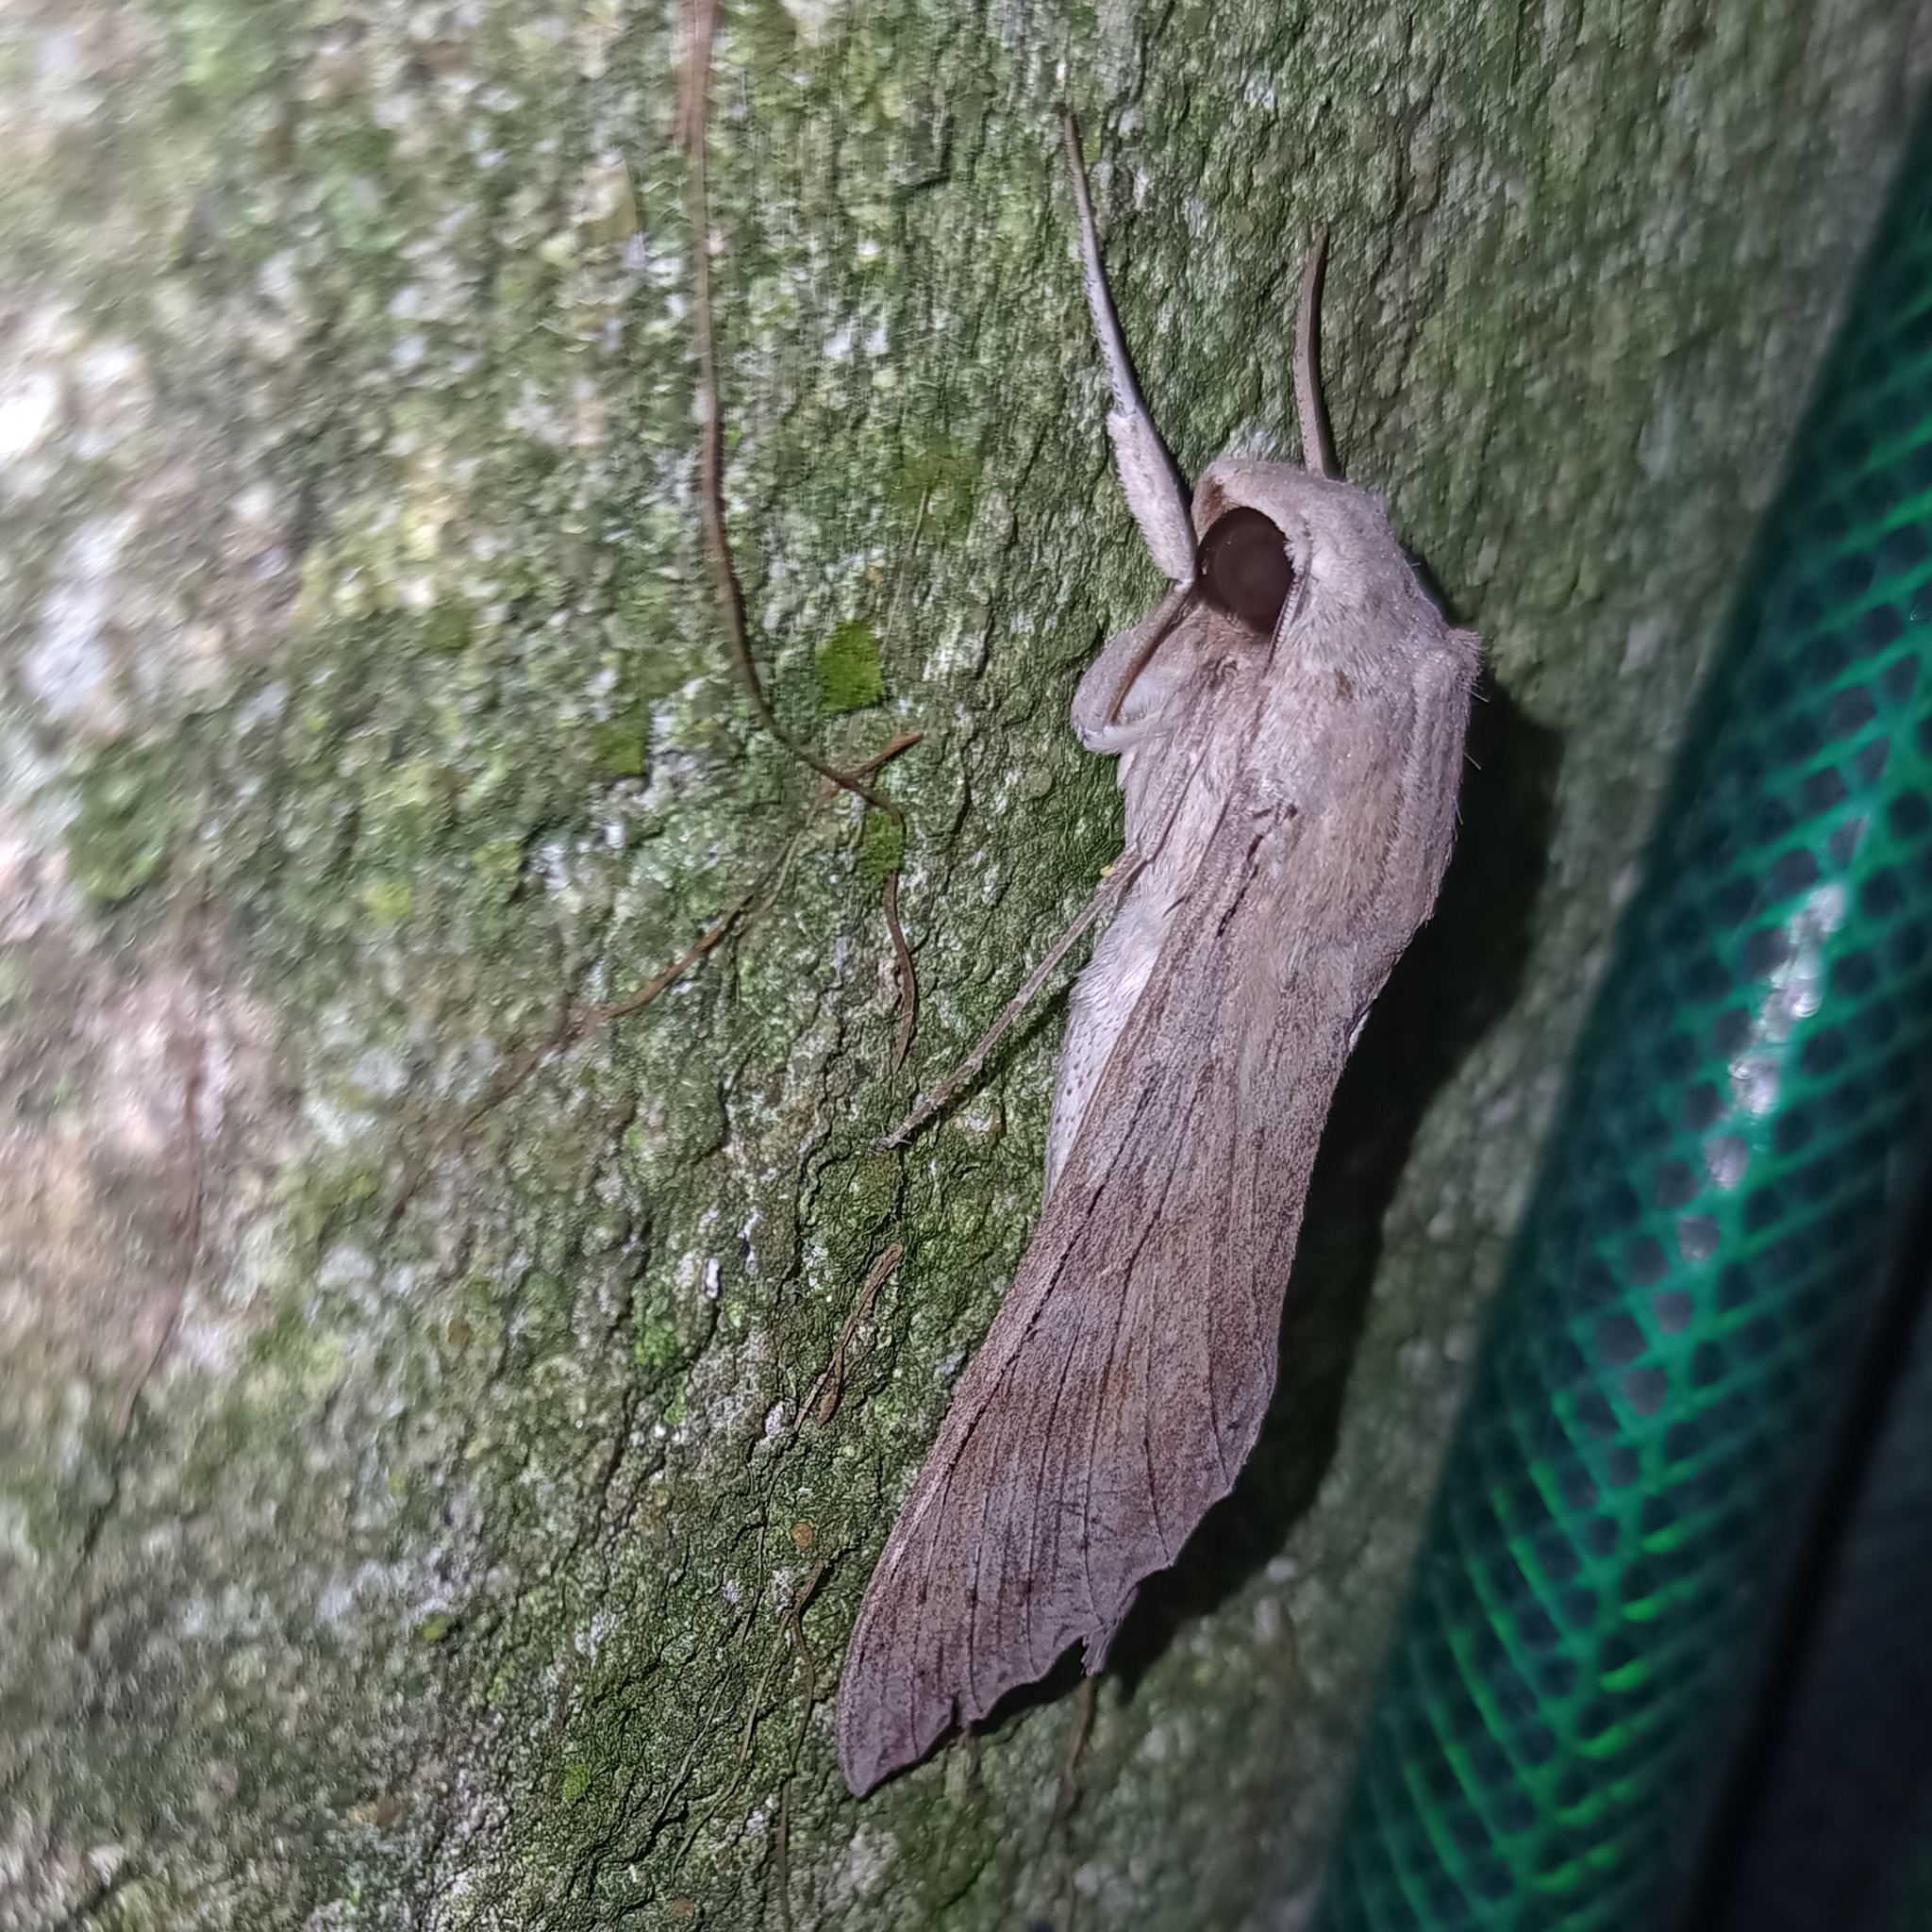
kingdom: Animalia
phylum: Arthropoda
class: Insecta
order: Lepidoptera
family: Sphingidae
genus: Erinnyis
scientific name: Erinnyis ello
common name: Ello sphinx
